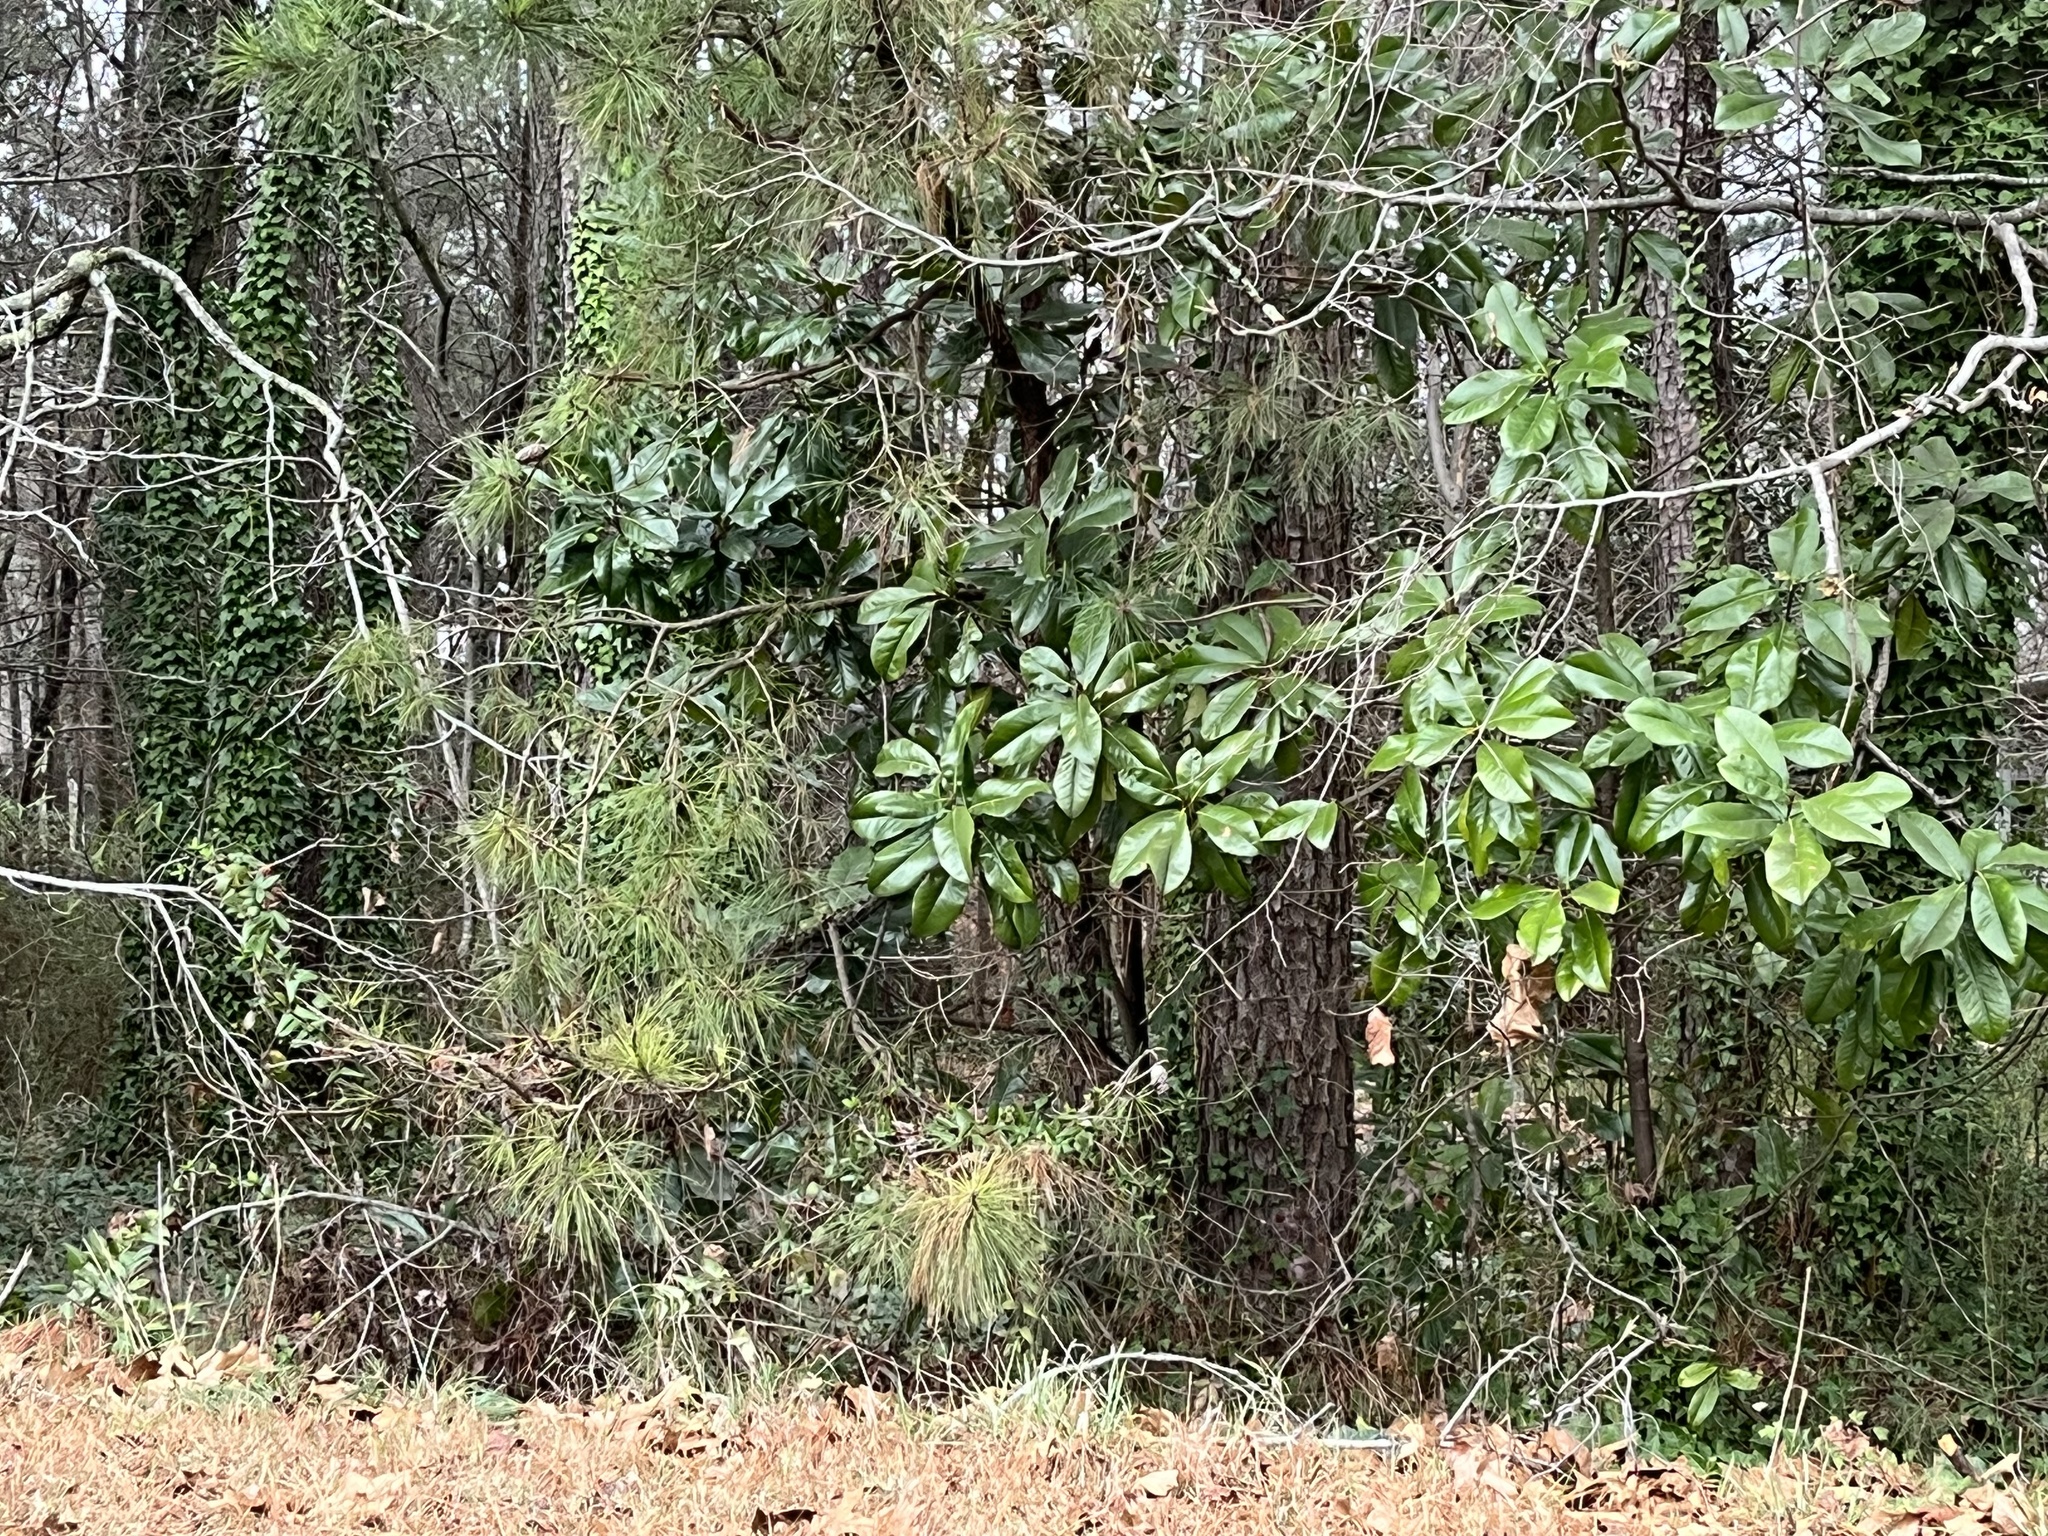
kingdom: Plantae
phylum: Tracheophyta
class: Magnoliopsida
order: Magnoliales
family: Magnoliaceae
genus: Magnolia
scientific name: Magnolia grandiflora
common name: Southern magnolia
